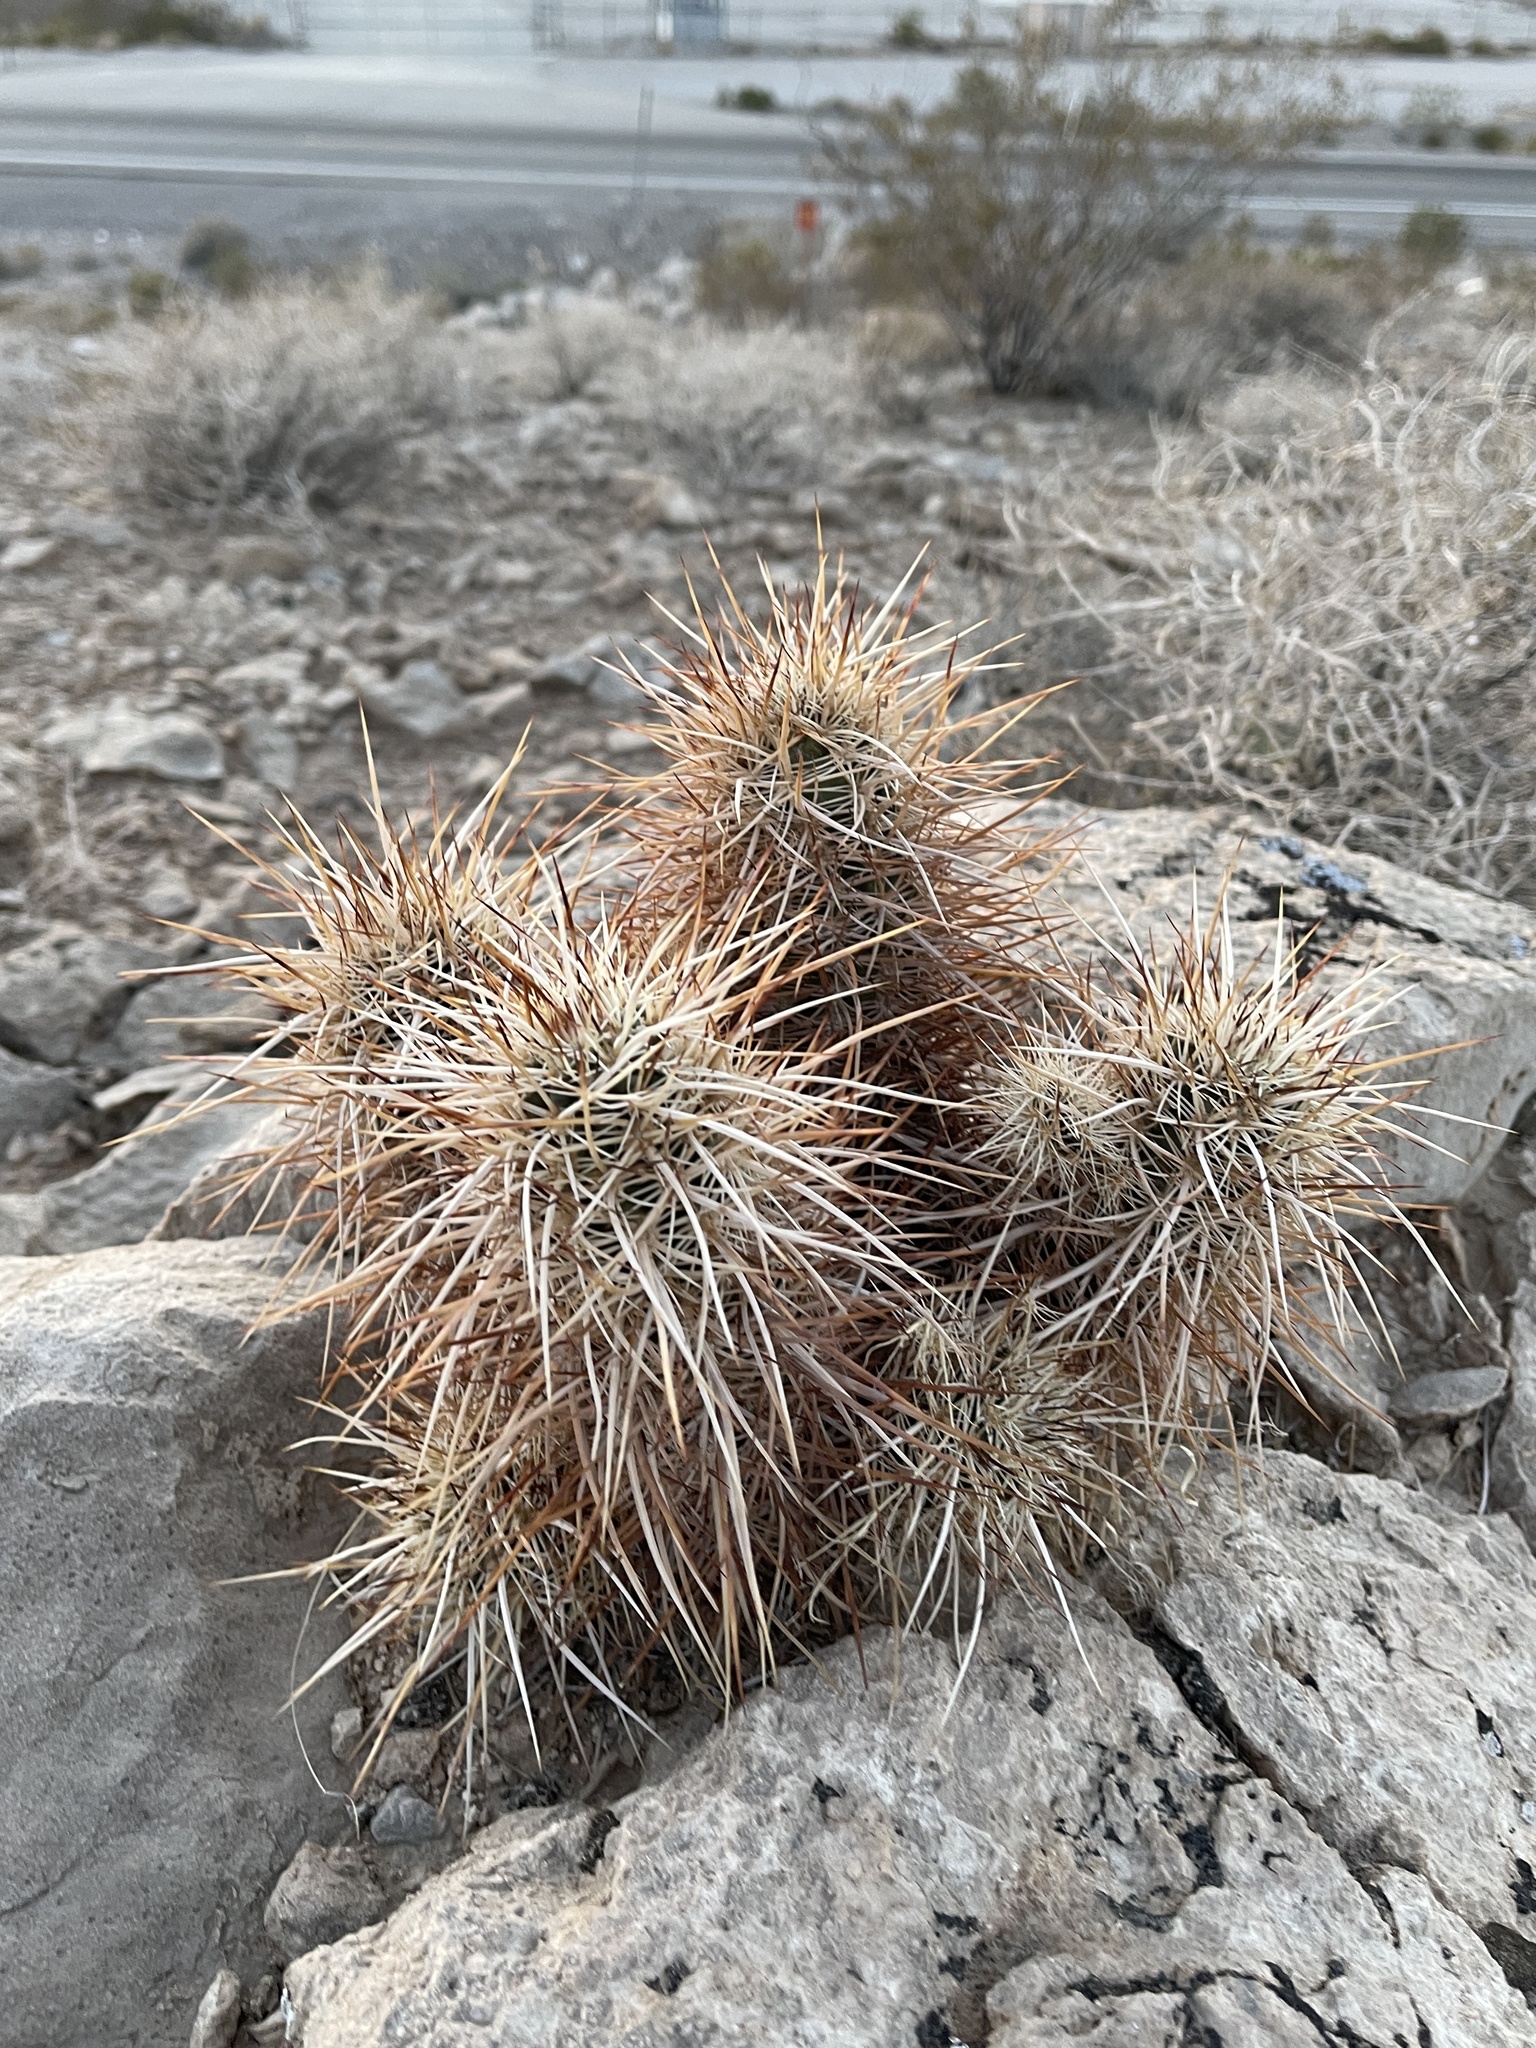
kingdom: Plantae
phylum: Tracheophyta
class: Magnoliopsida
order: Caryophyllales
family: Cactaceae
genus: Echinocereus
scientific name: Echinocereus engelmannii
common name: Engelmann's hedgehog cactus
